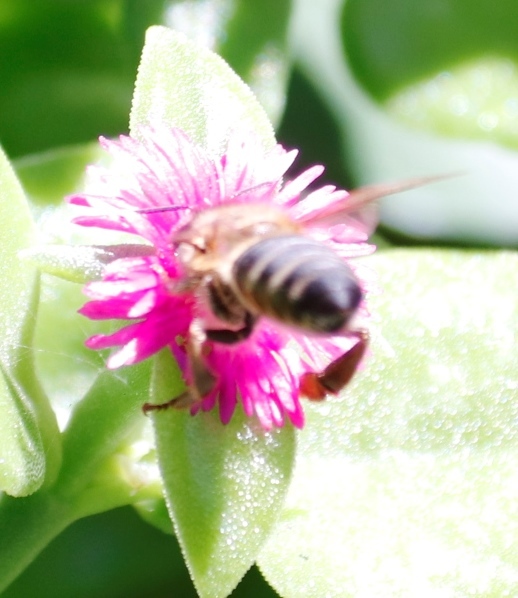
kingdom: Animalia
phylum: Arthropoda
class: Insecta
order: Hymenoptera
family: Apidae
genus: Apis
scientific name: Apis mellifera
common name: Honey bee
